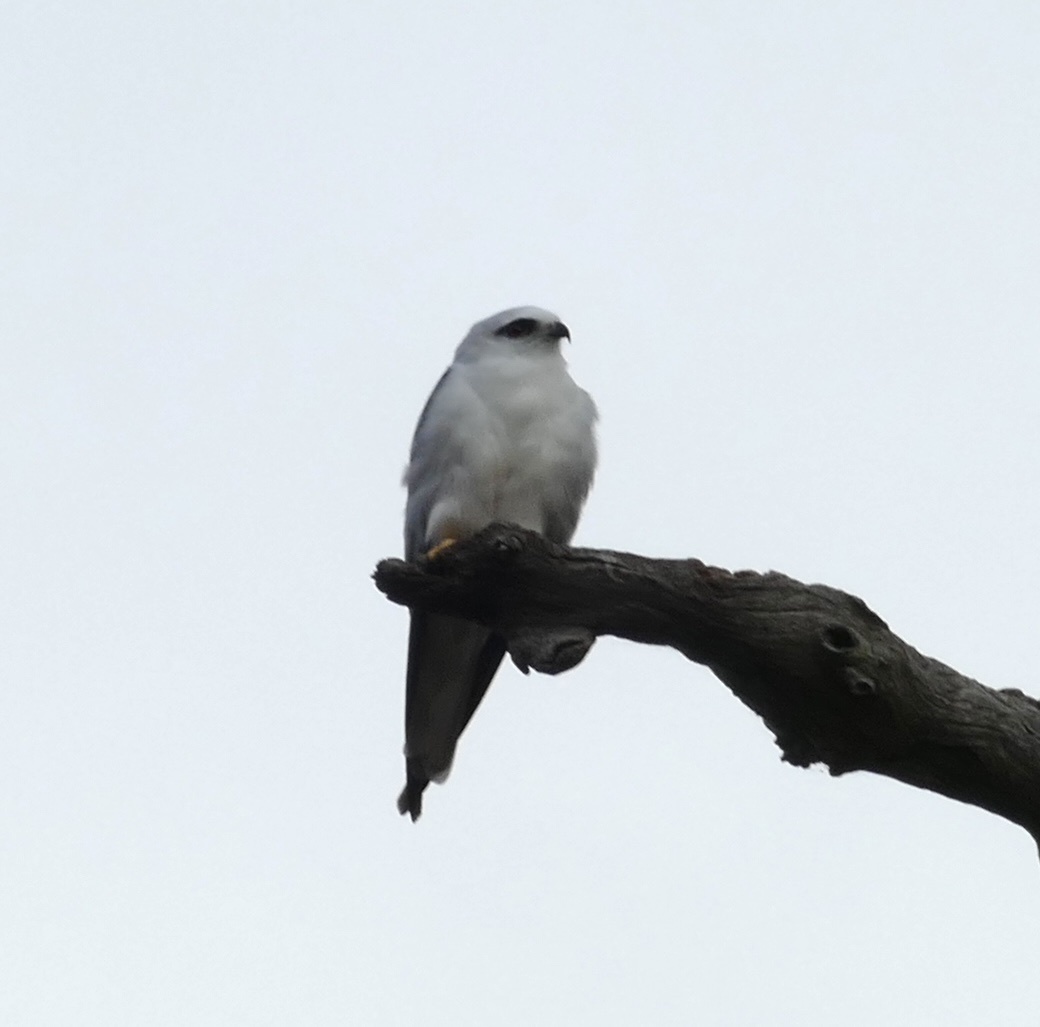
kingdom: Animalia
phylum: Chordata
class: Aves
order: Accipitriformes
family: Accipitridae
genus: Elanus
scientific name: Elanus axillaris
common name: Black-shouldered kite
